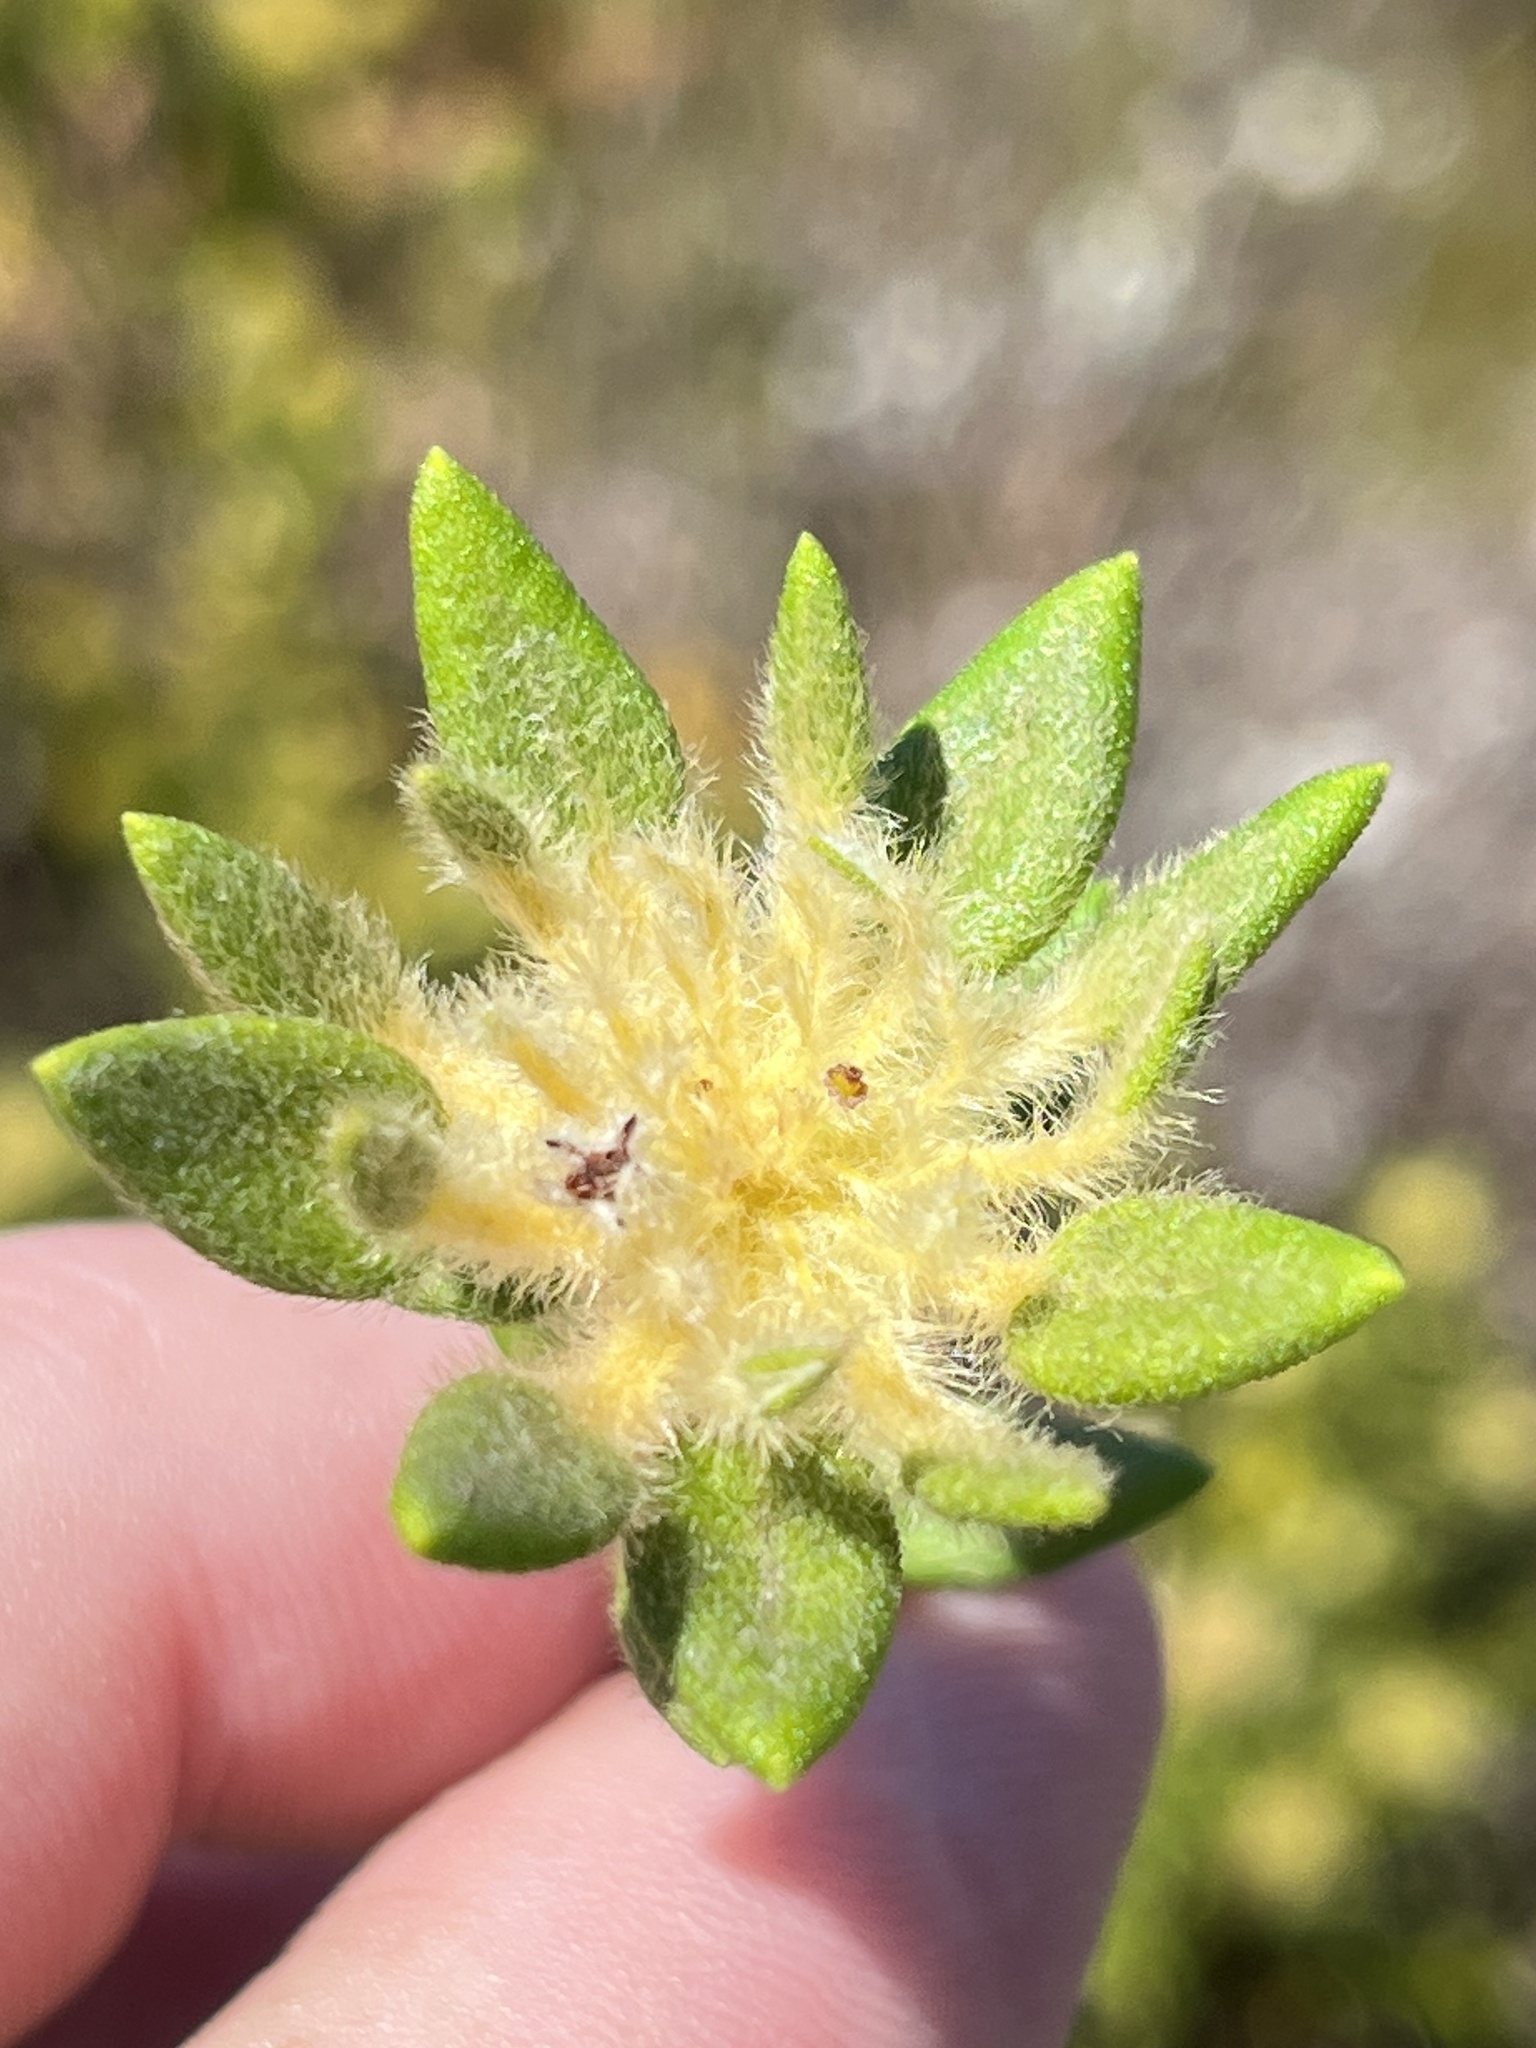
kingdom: Plantae
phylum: Tracheophyta
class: Magnoliopsida
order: Rosales
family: Rhamnaceae
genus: Phylica
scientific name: Phylica dioica
